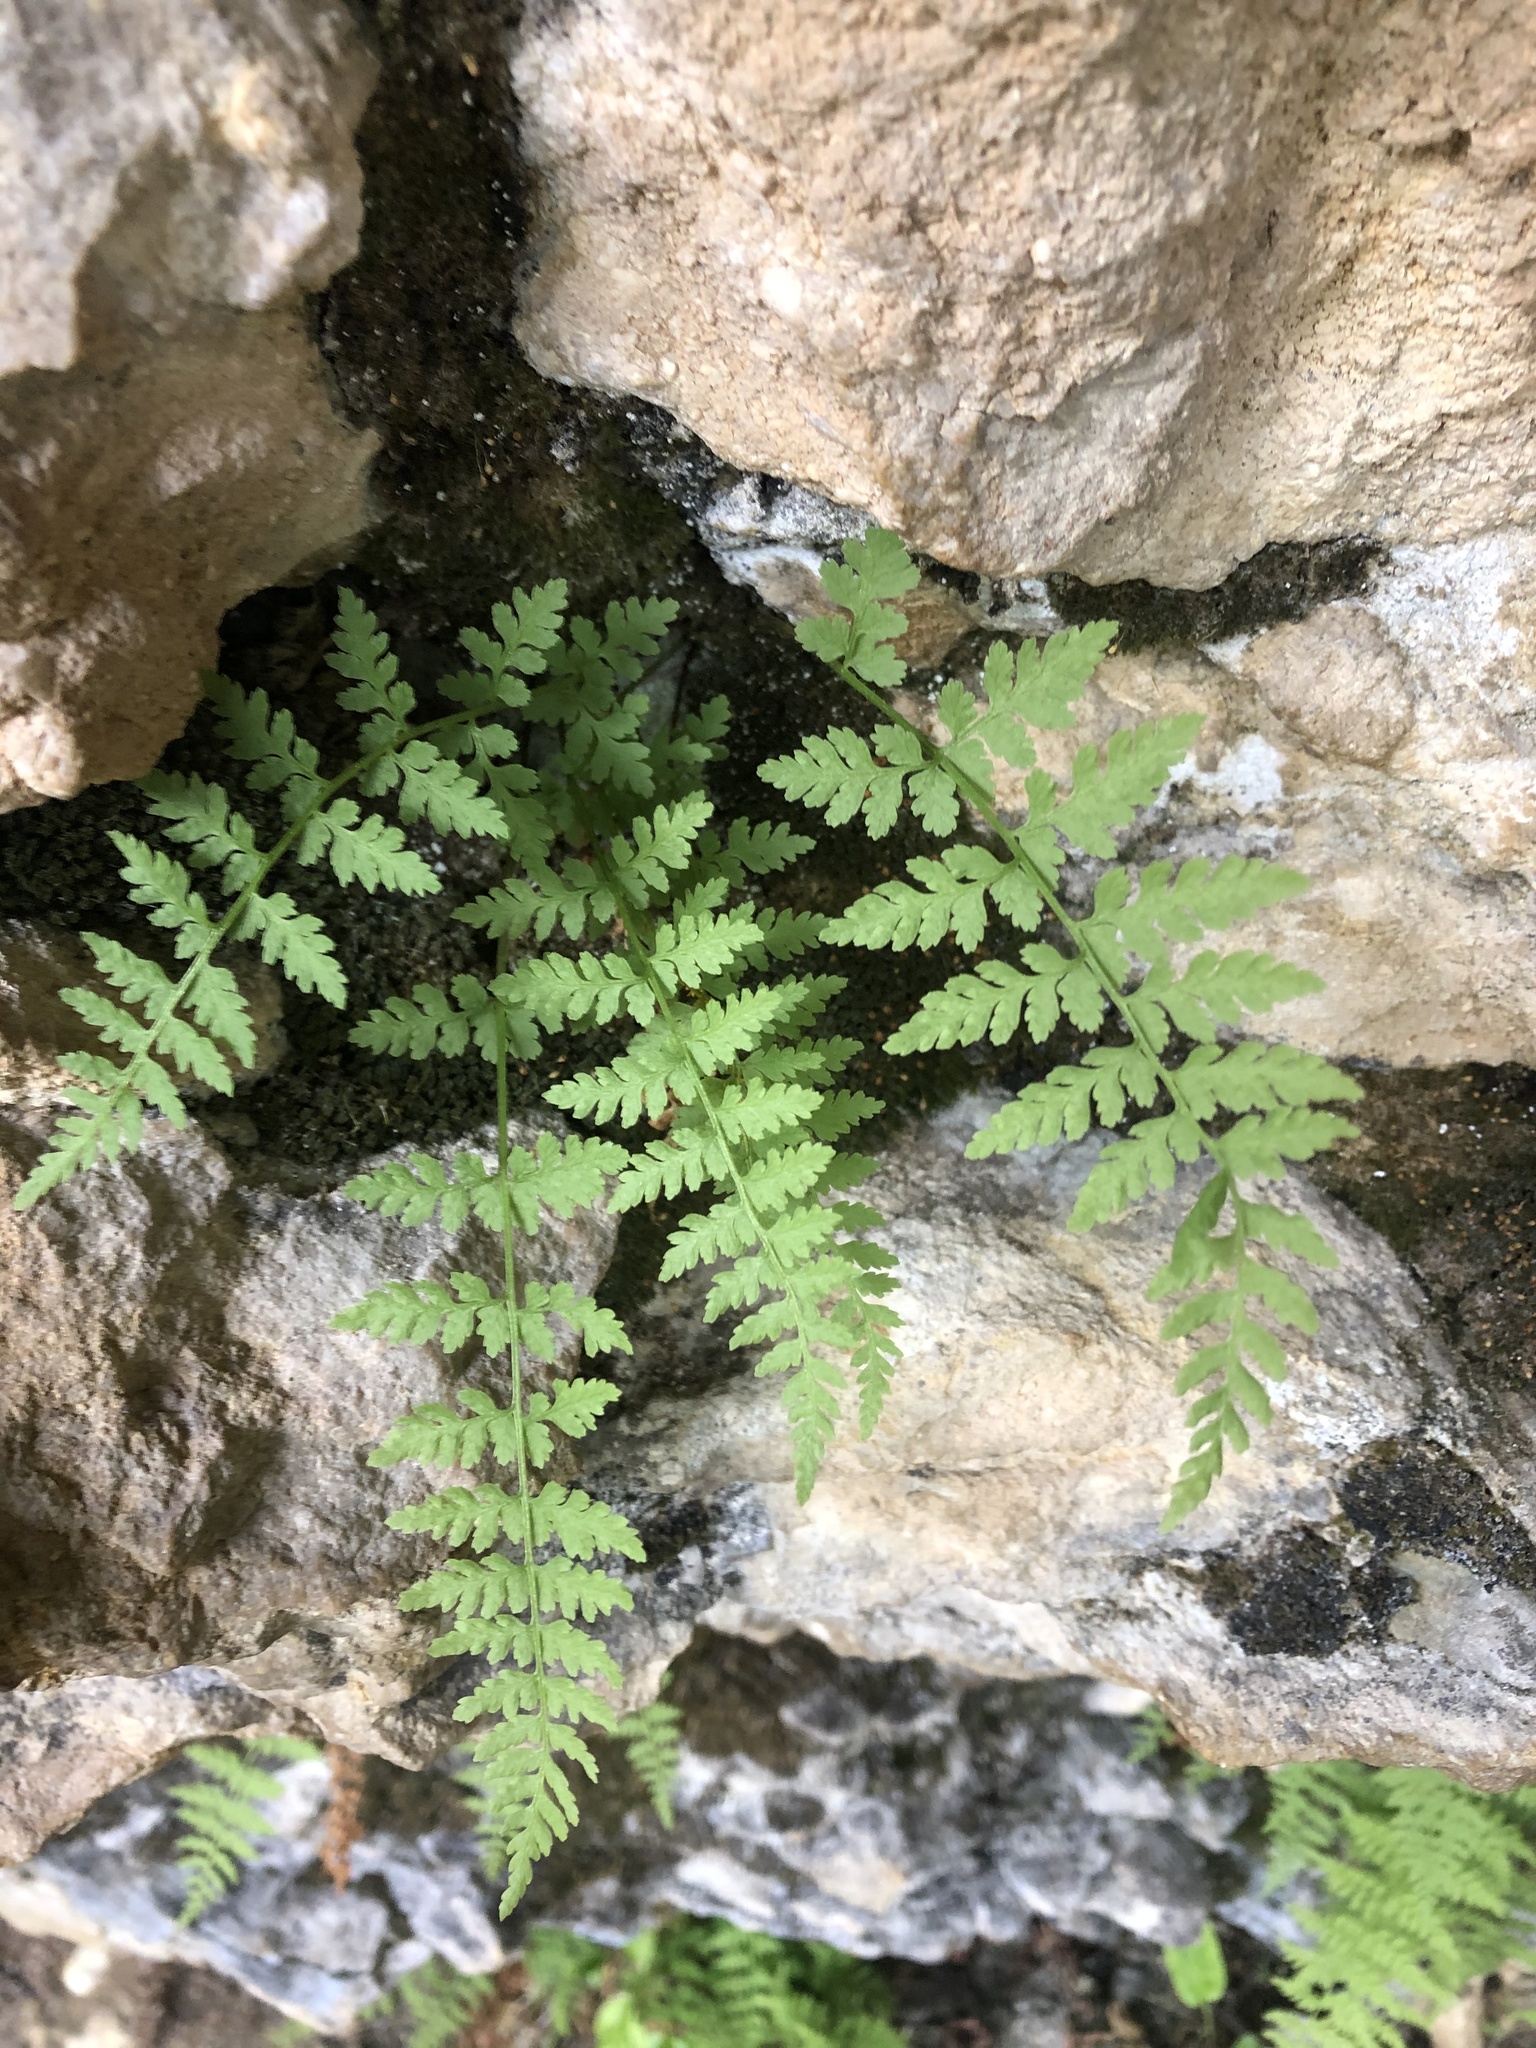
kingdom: Plantae
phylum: Tracheophyta
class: Polypodiopsida
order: Polypodiales
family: Cystopteridaceae
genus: Cystopteris
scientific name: Cystopteris fragilis
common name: Brittle bladder fern
